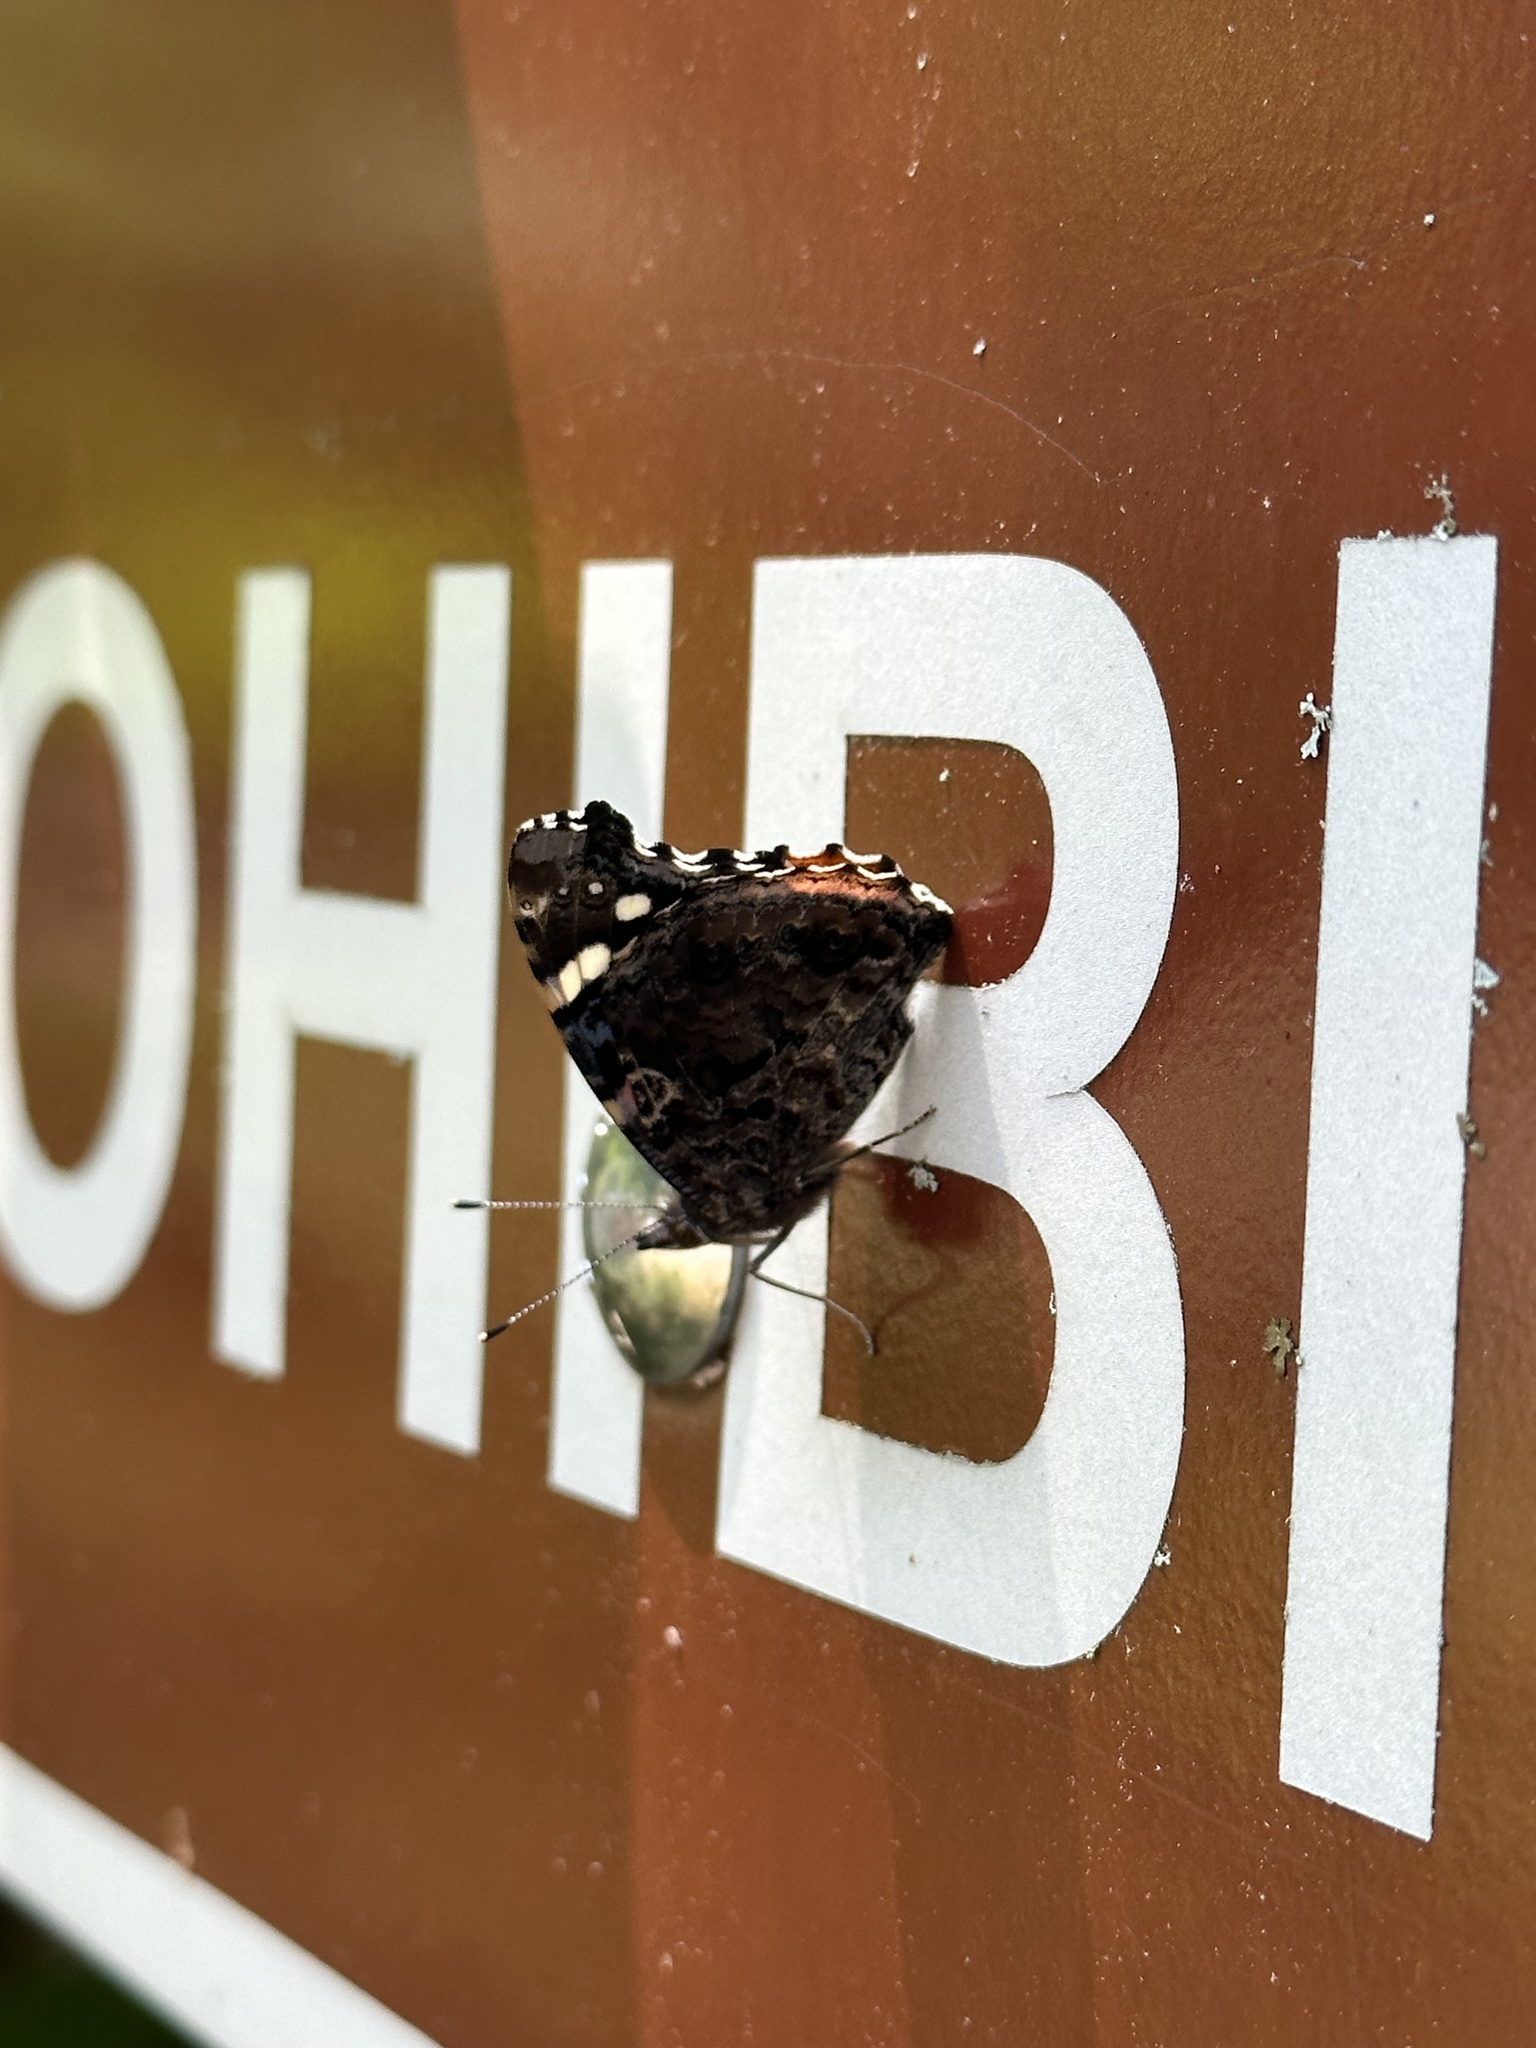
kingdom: Animalia
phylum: Arthropoda
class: Insecta
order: Lepidoptera
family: Nymphalidae
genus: Vanessa
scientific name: Vanessa atalanta
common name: Red admiral
